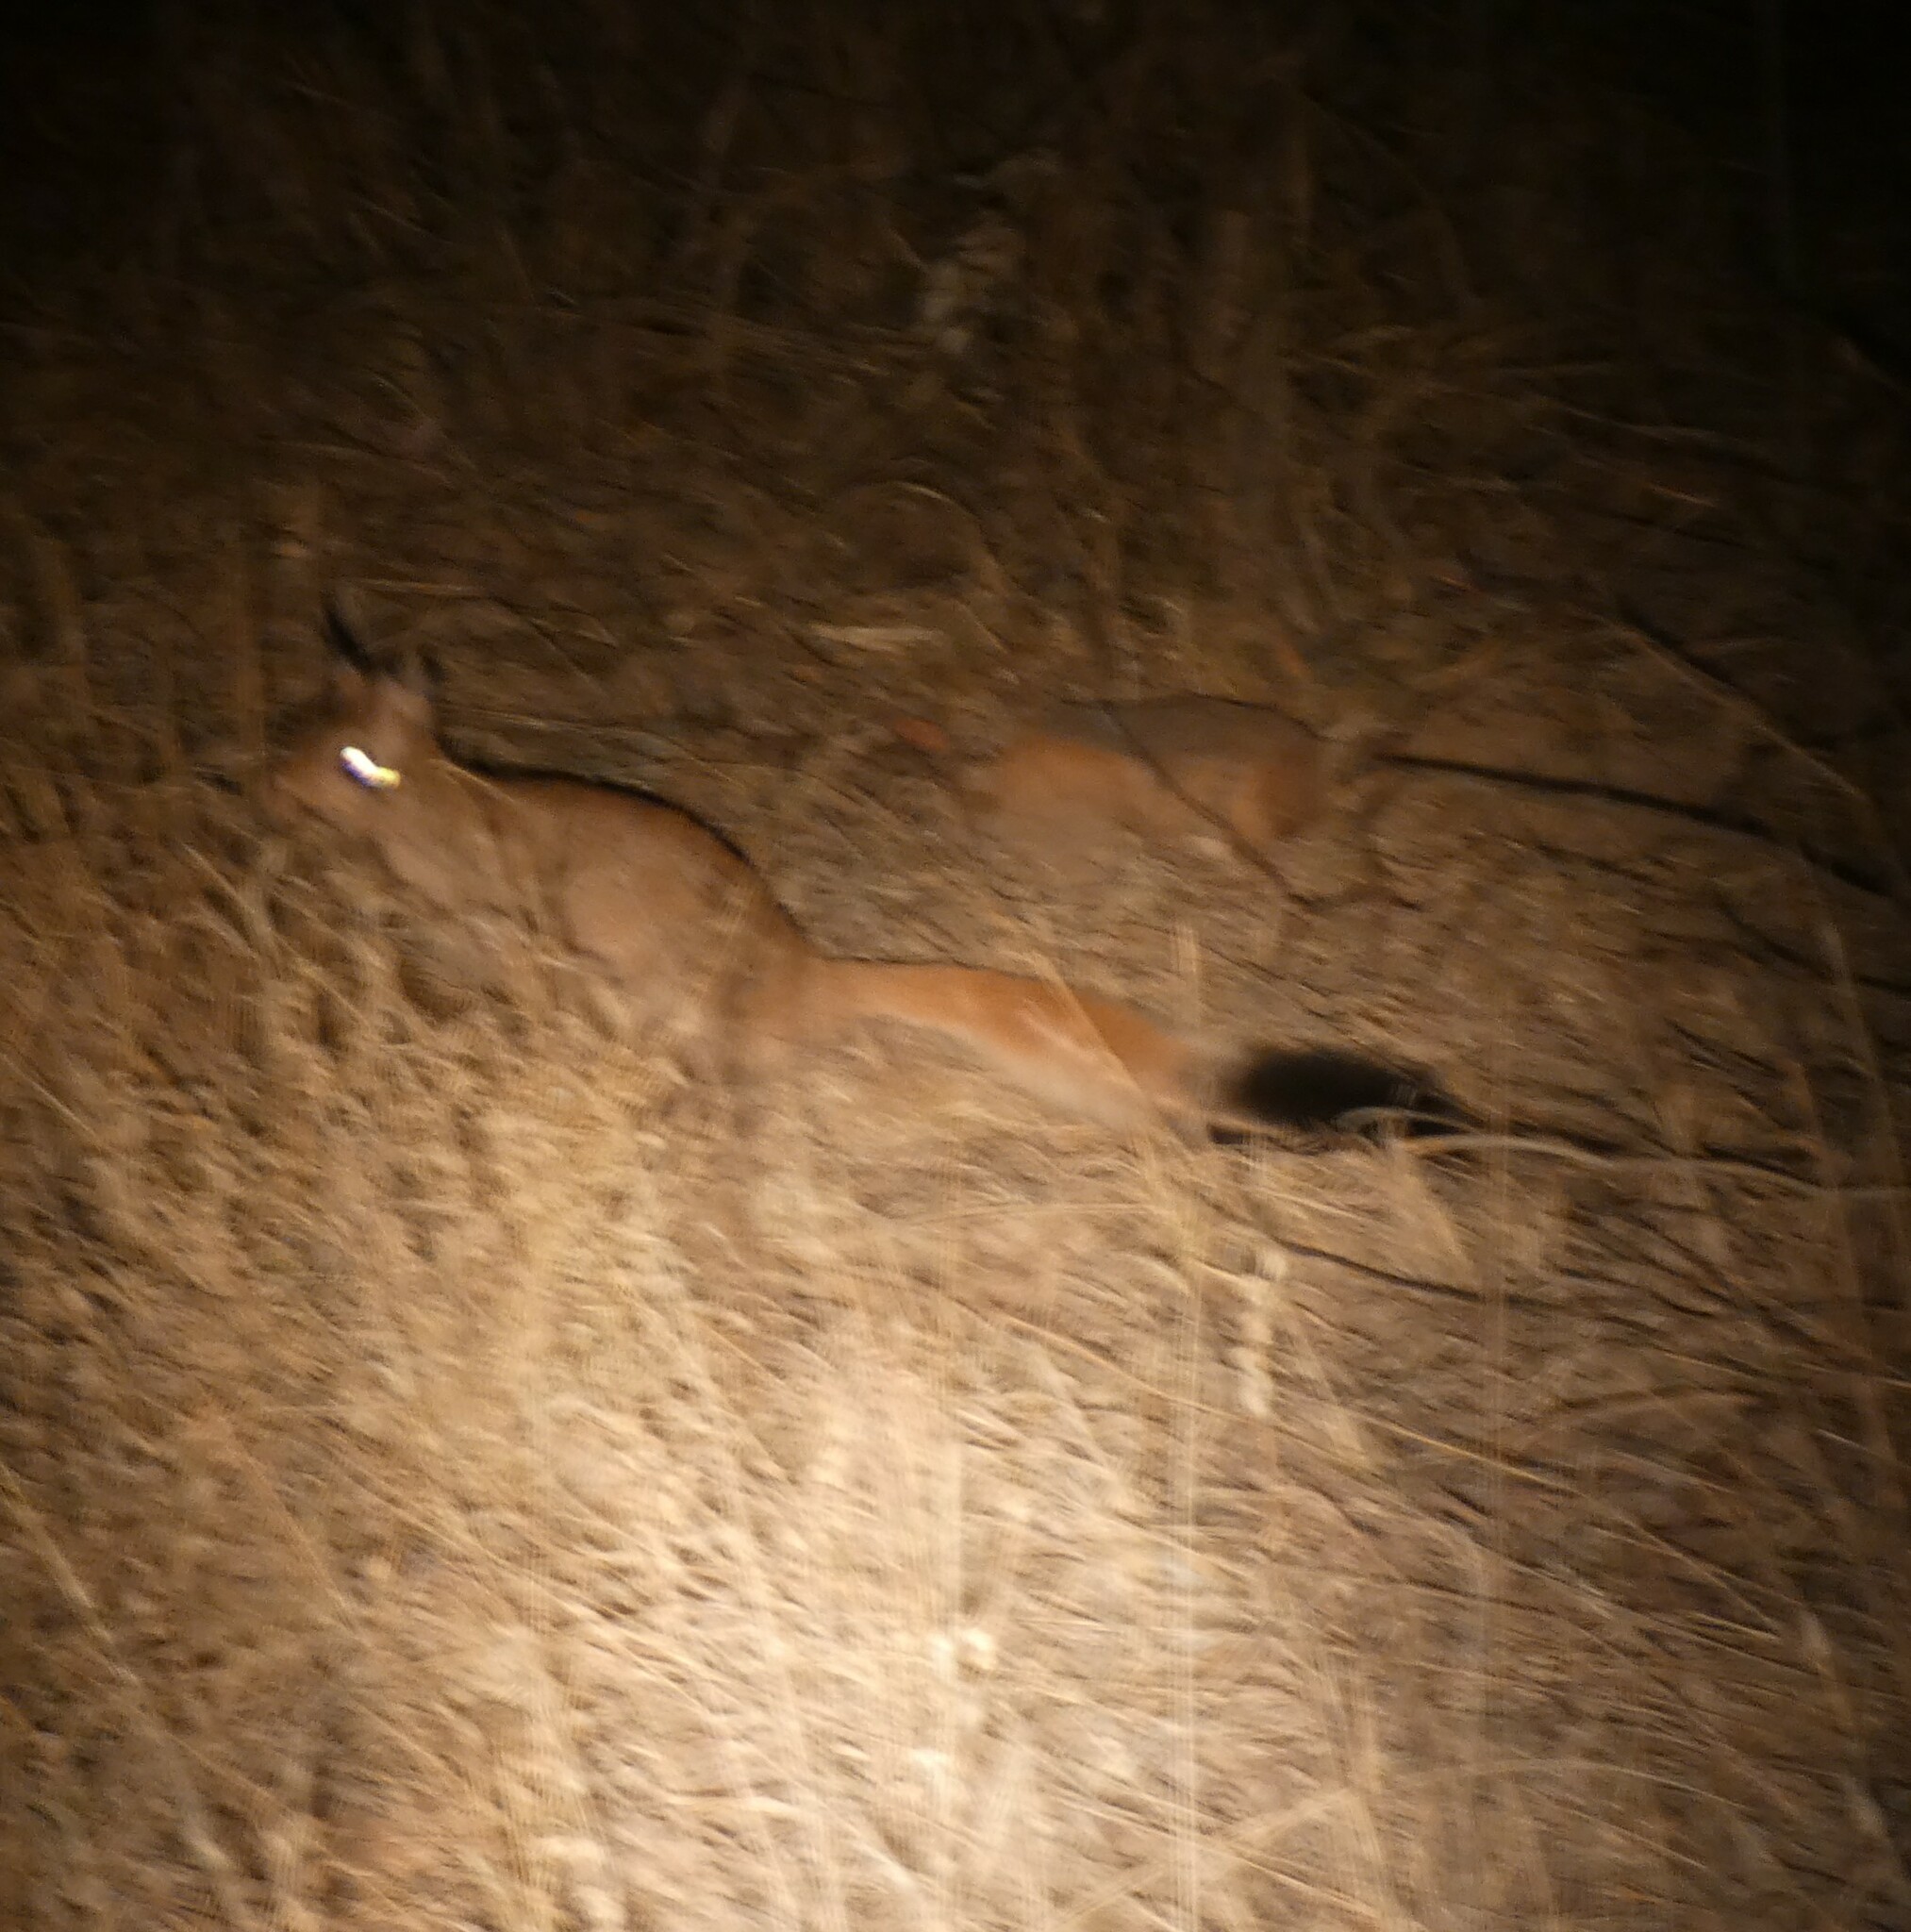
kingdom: Animalia
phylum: Chordata
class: Mammalia
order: Rodentia
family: Pedetidae
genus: Pedetes
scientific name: Pedetes capensis
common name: South african spring hare
